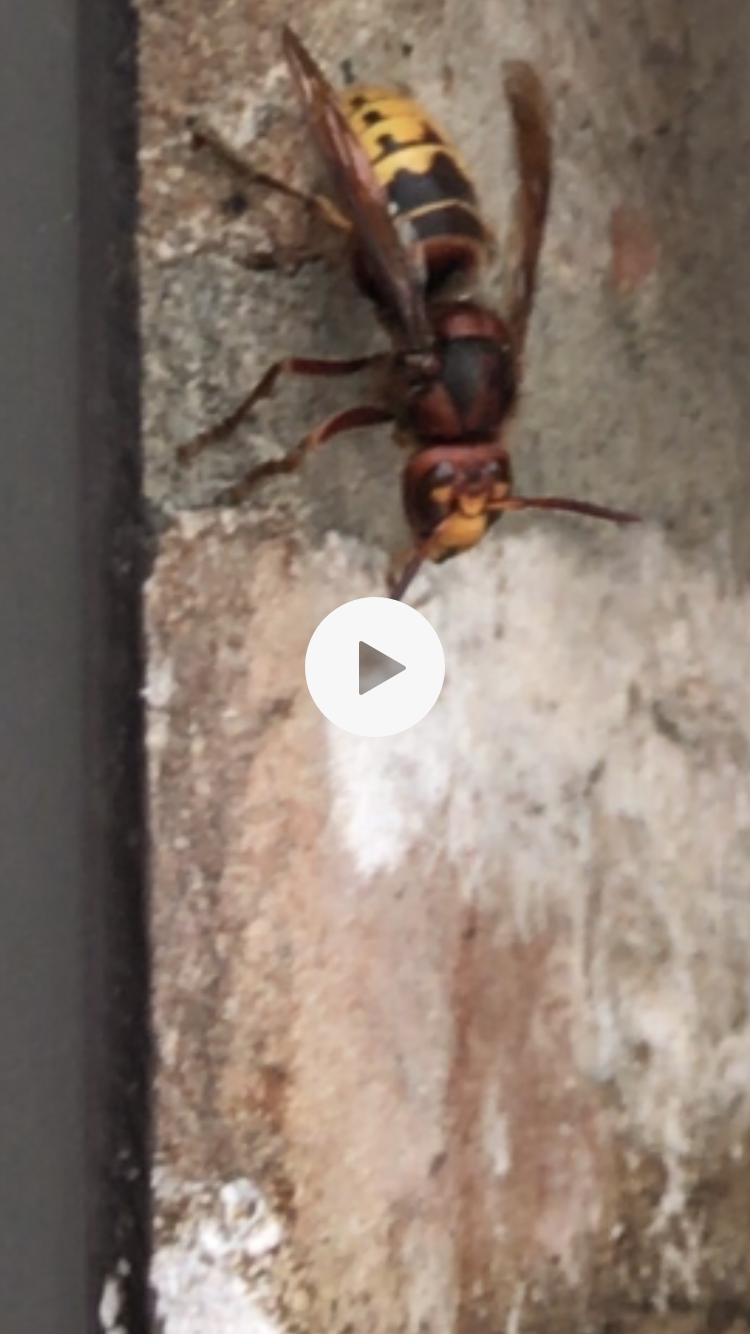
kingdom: Animalia
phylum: Arthropoda
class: Insecta
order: Hymenoptera
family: Vespidae
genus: Vespa
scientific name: Vespa crabro
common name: Hornet
